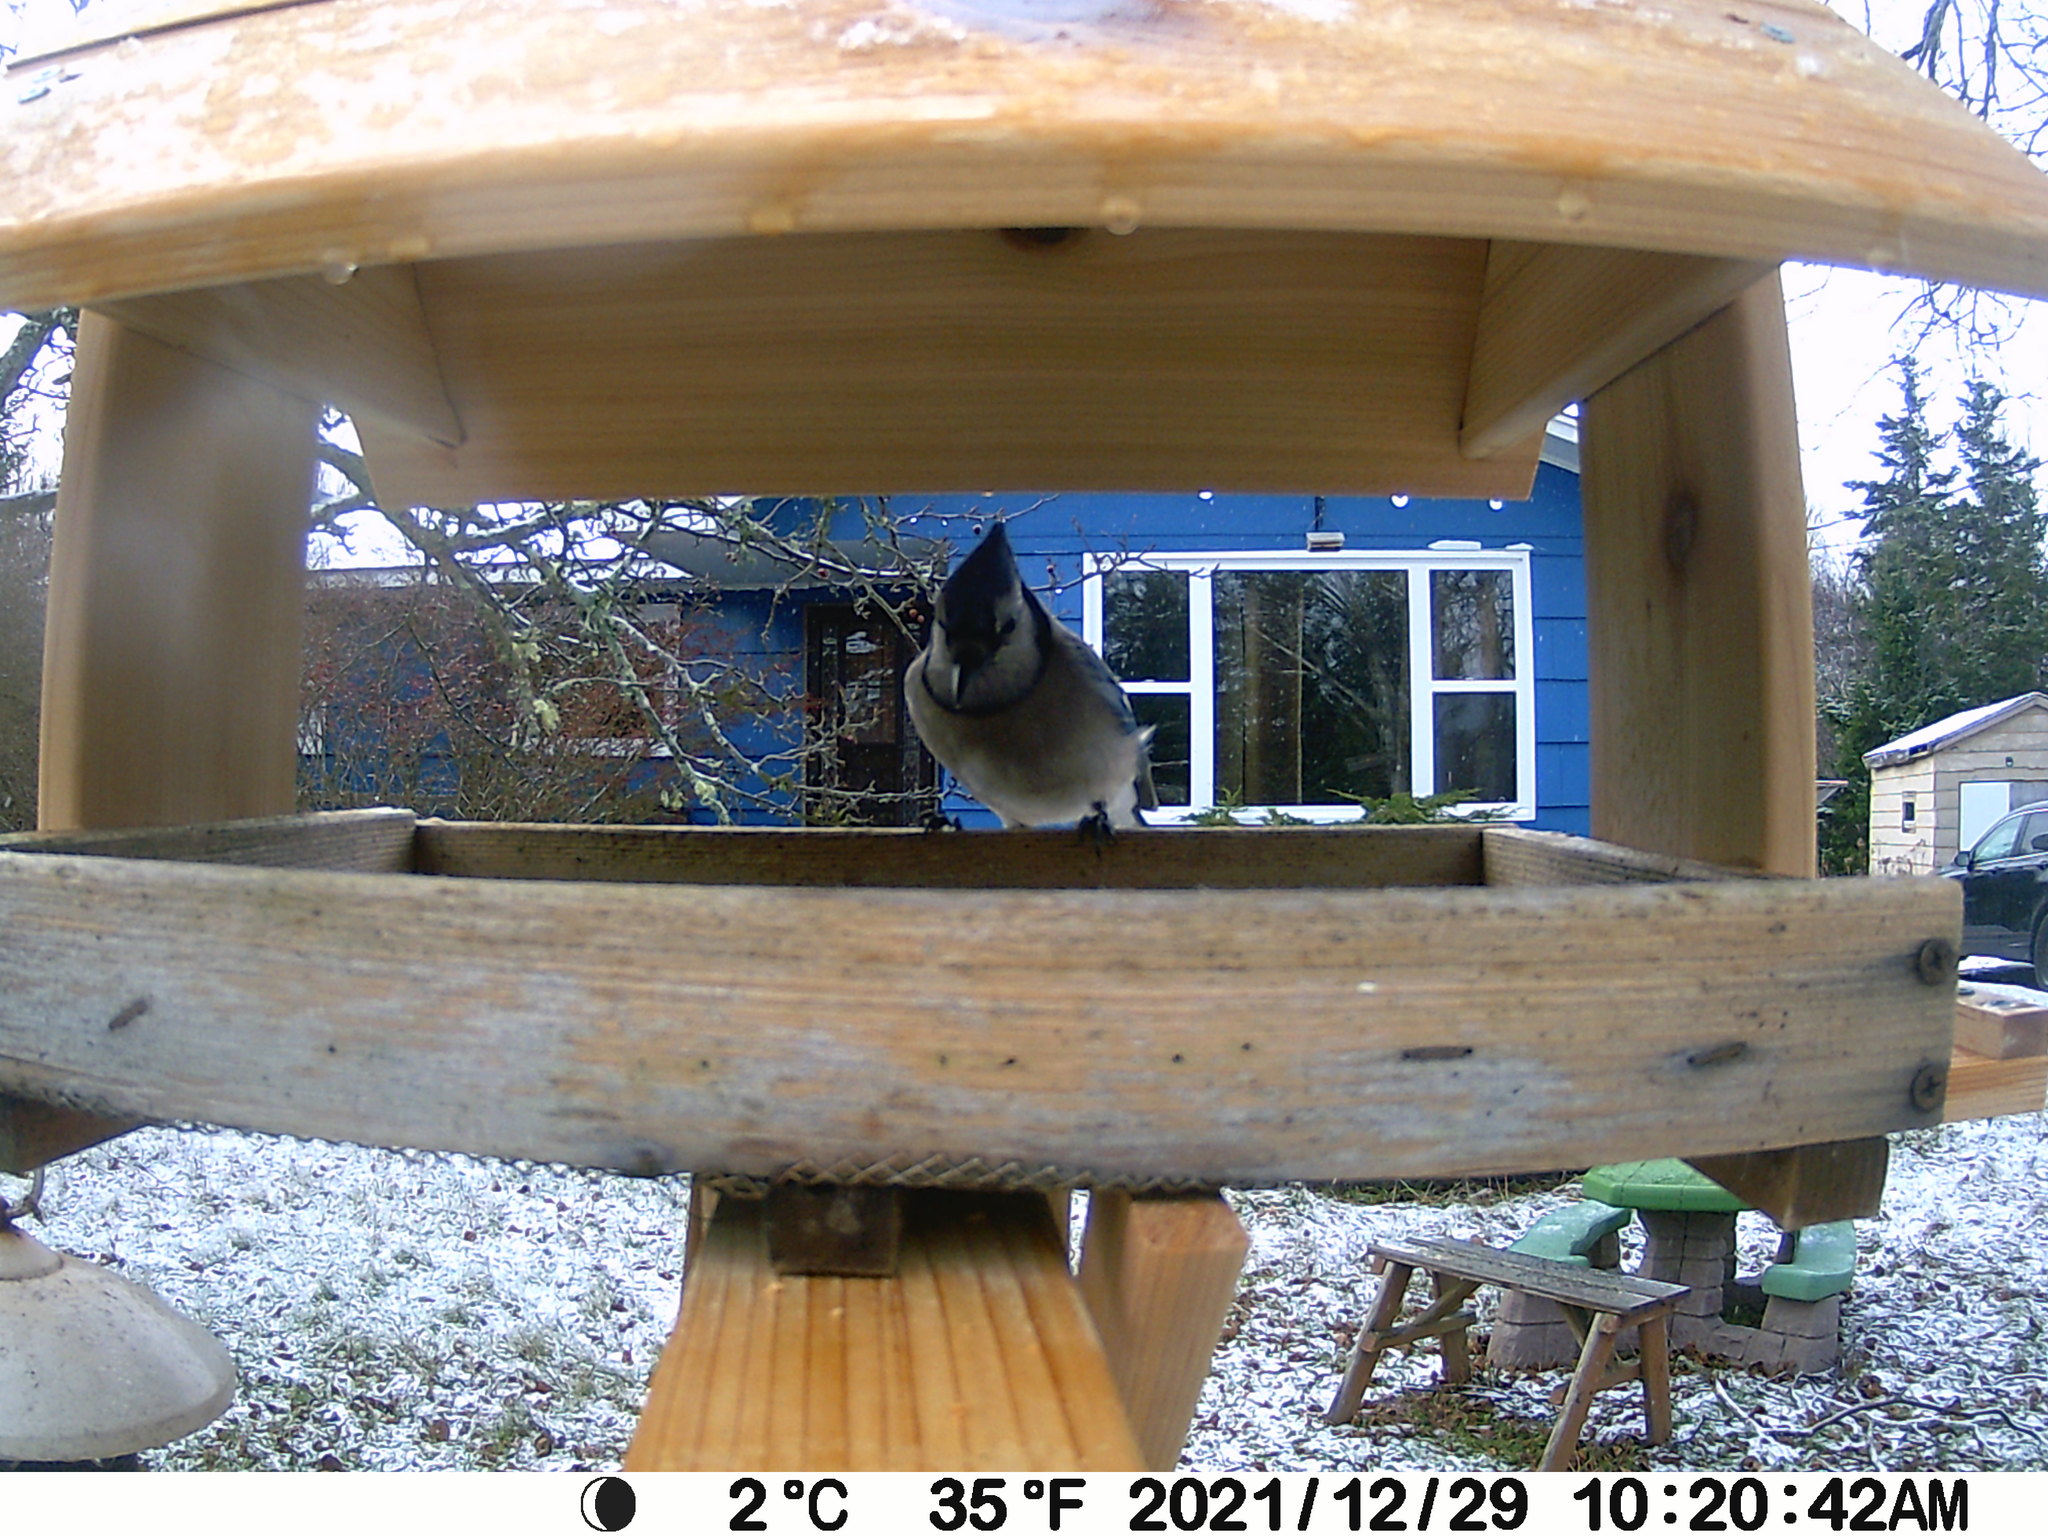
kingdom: Animalia
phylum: Chordata
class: Aves
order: Passeriformes
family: Corvidae
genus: Cyanocitta
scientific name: Cyanocitta cristata
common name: Blue jay
